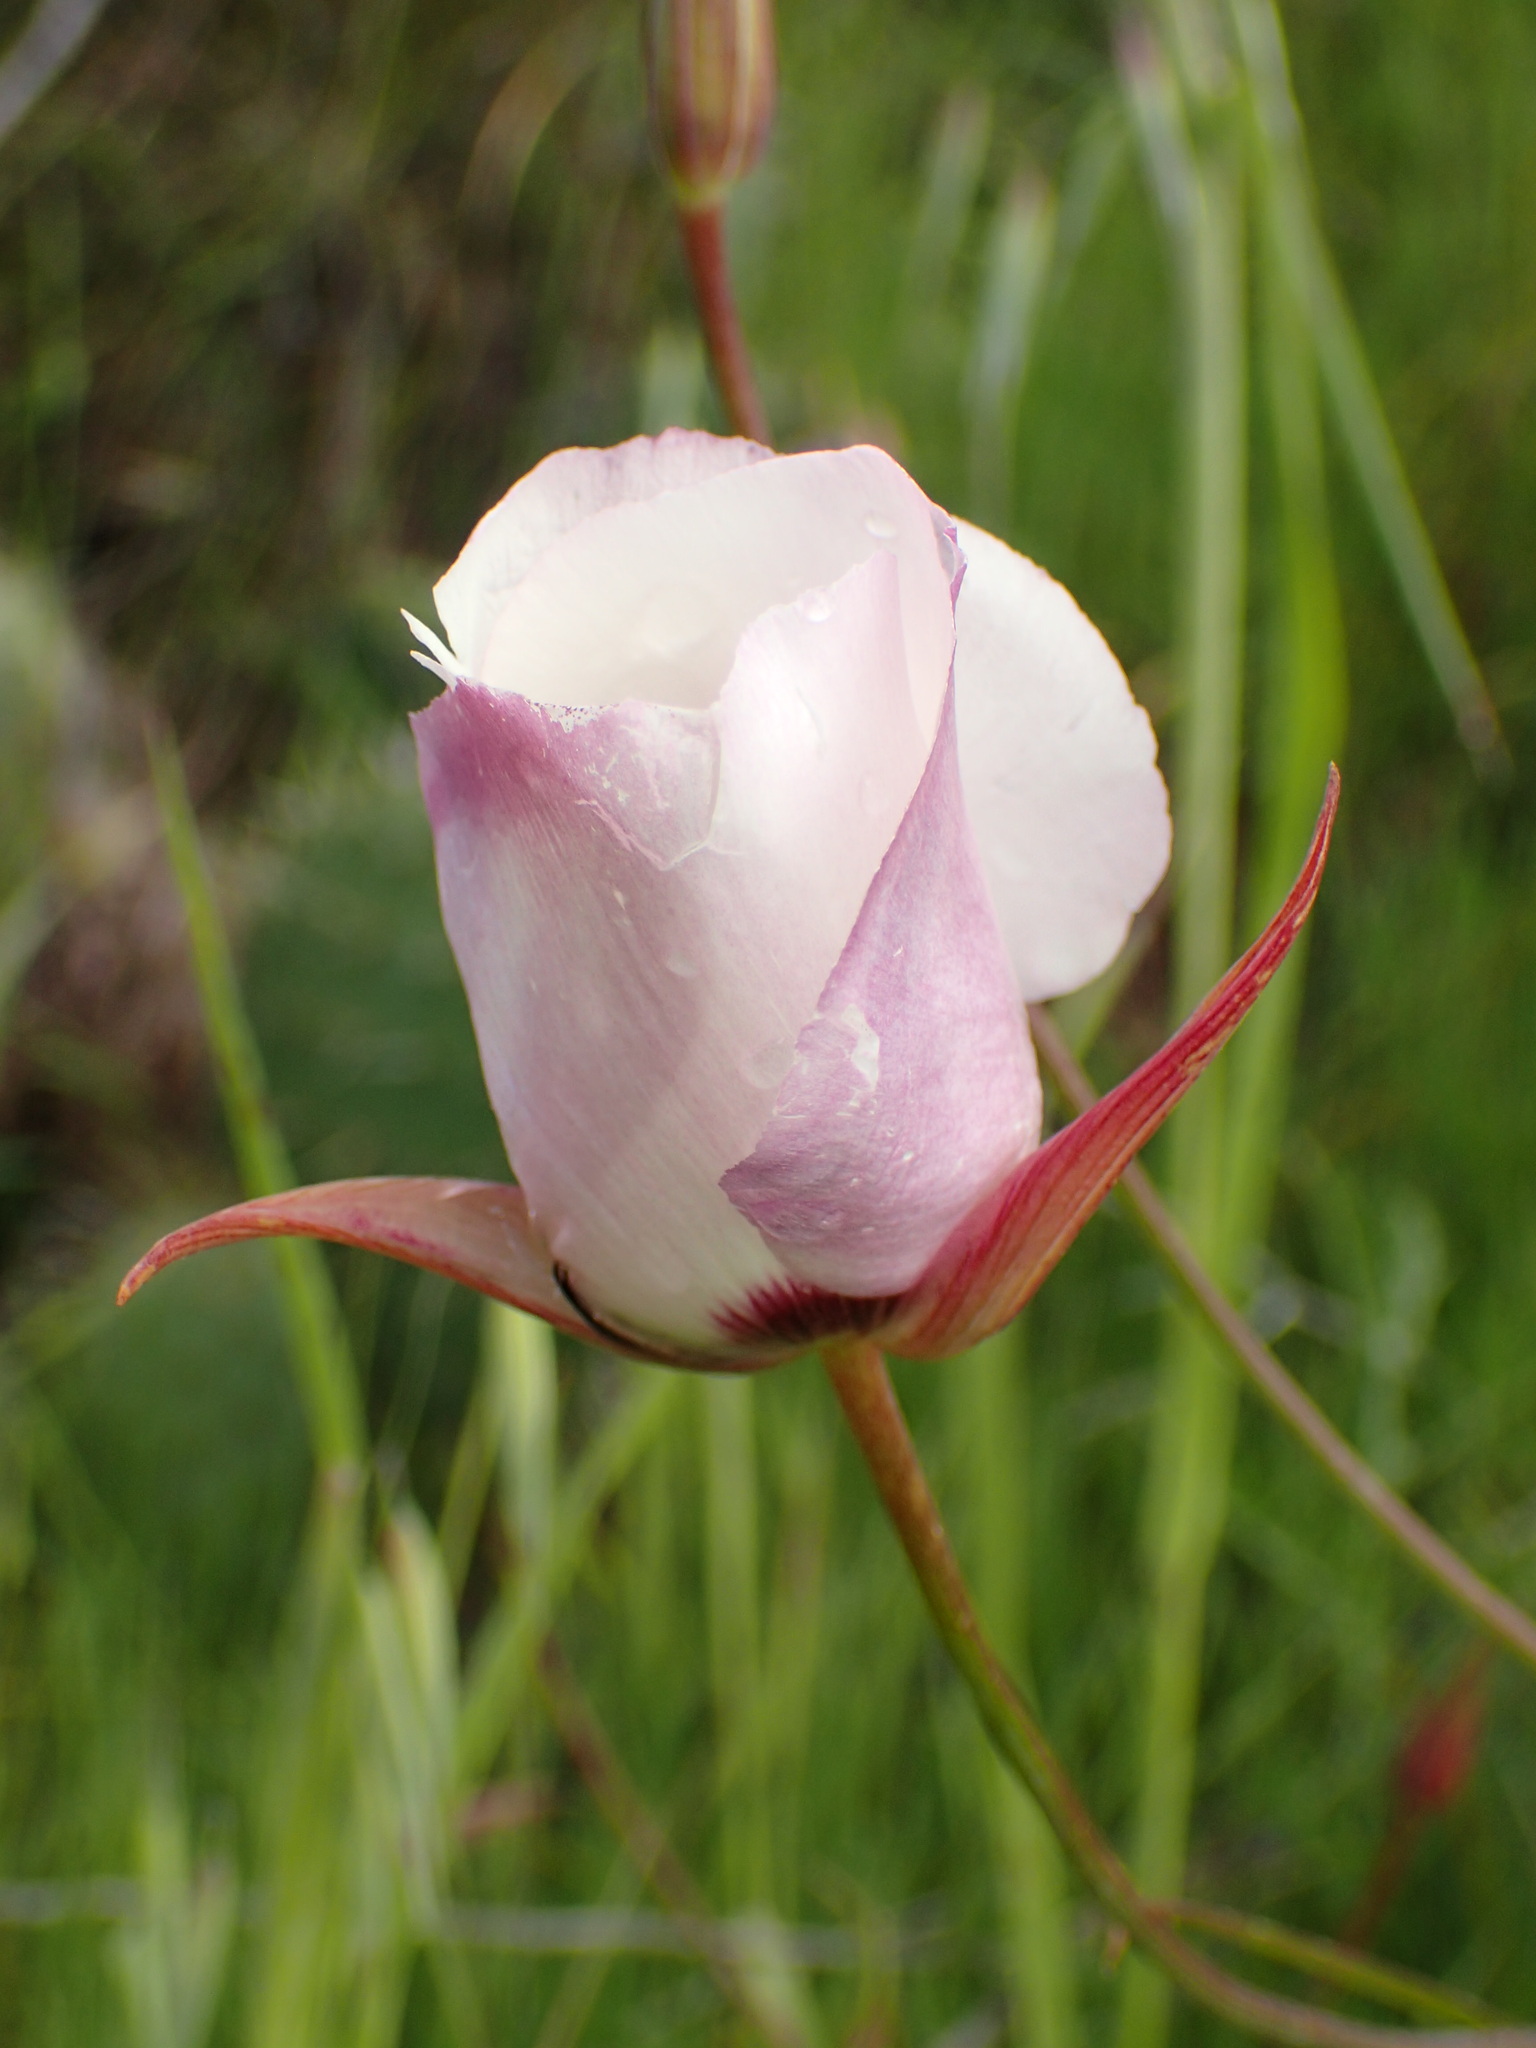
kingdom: Plantae
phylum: Tracheophyta
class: Liliopsida
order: Liliales
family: Liliaceae
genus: Calochortus
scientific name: Calochortus catalinae
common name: Catalina mariposa-lily
